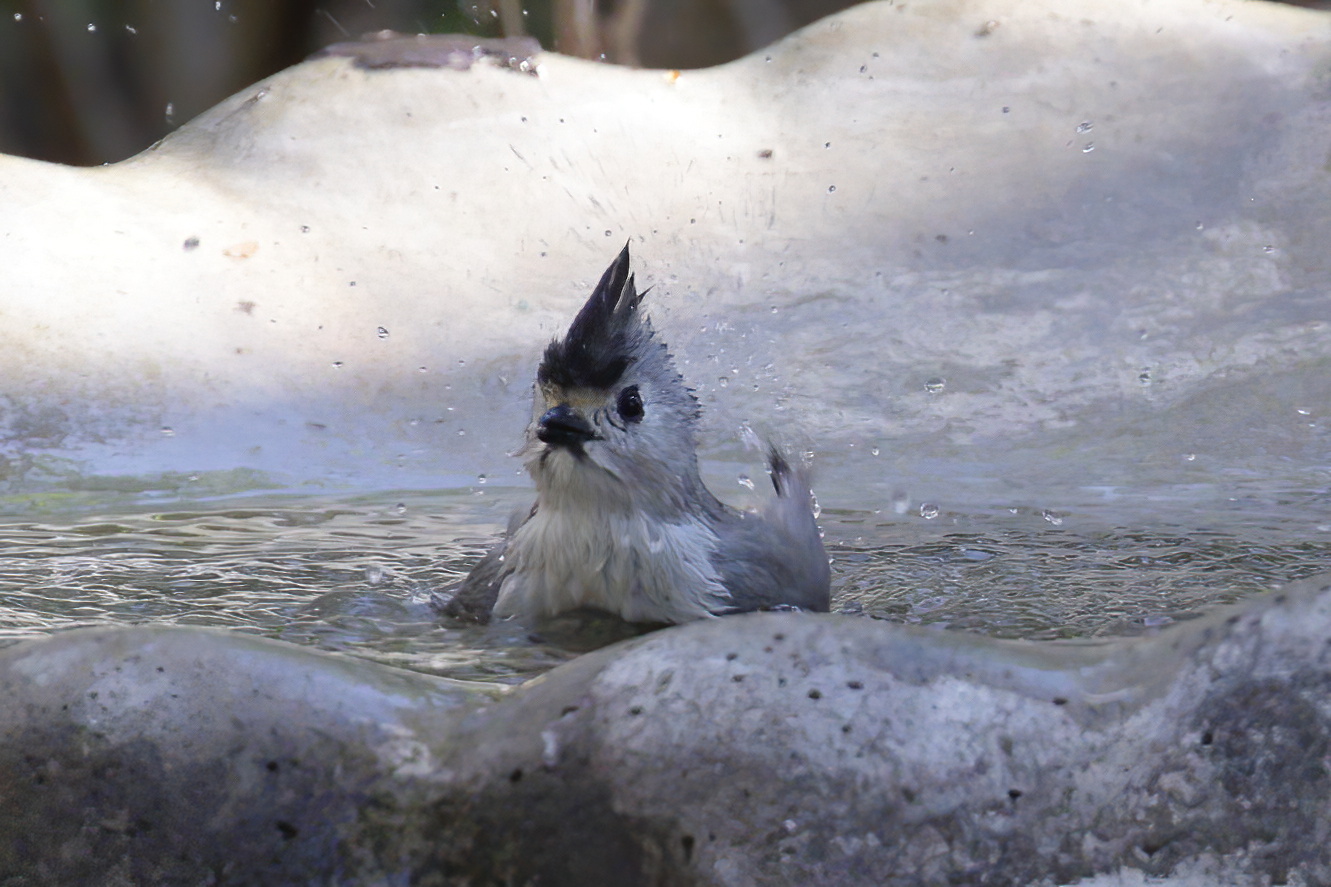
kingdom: Animalia
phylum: Chordata
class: Aves
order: Passeriformes
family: Paridae
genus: Baeolophus
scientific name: Baeolophus atricristatus
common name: Black-crested titmouse
